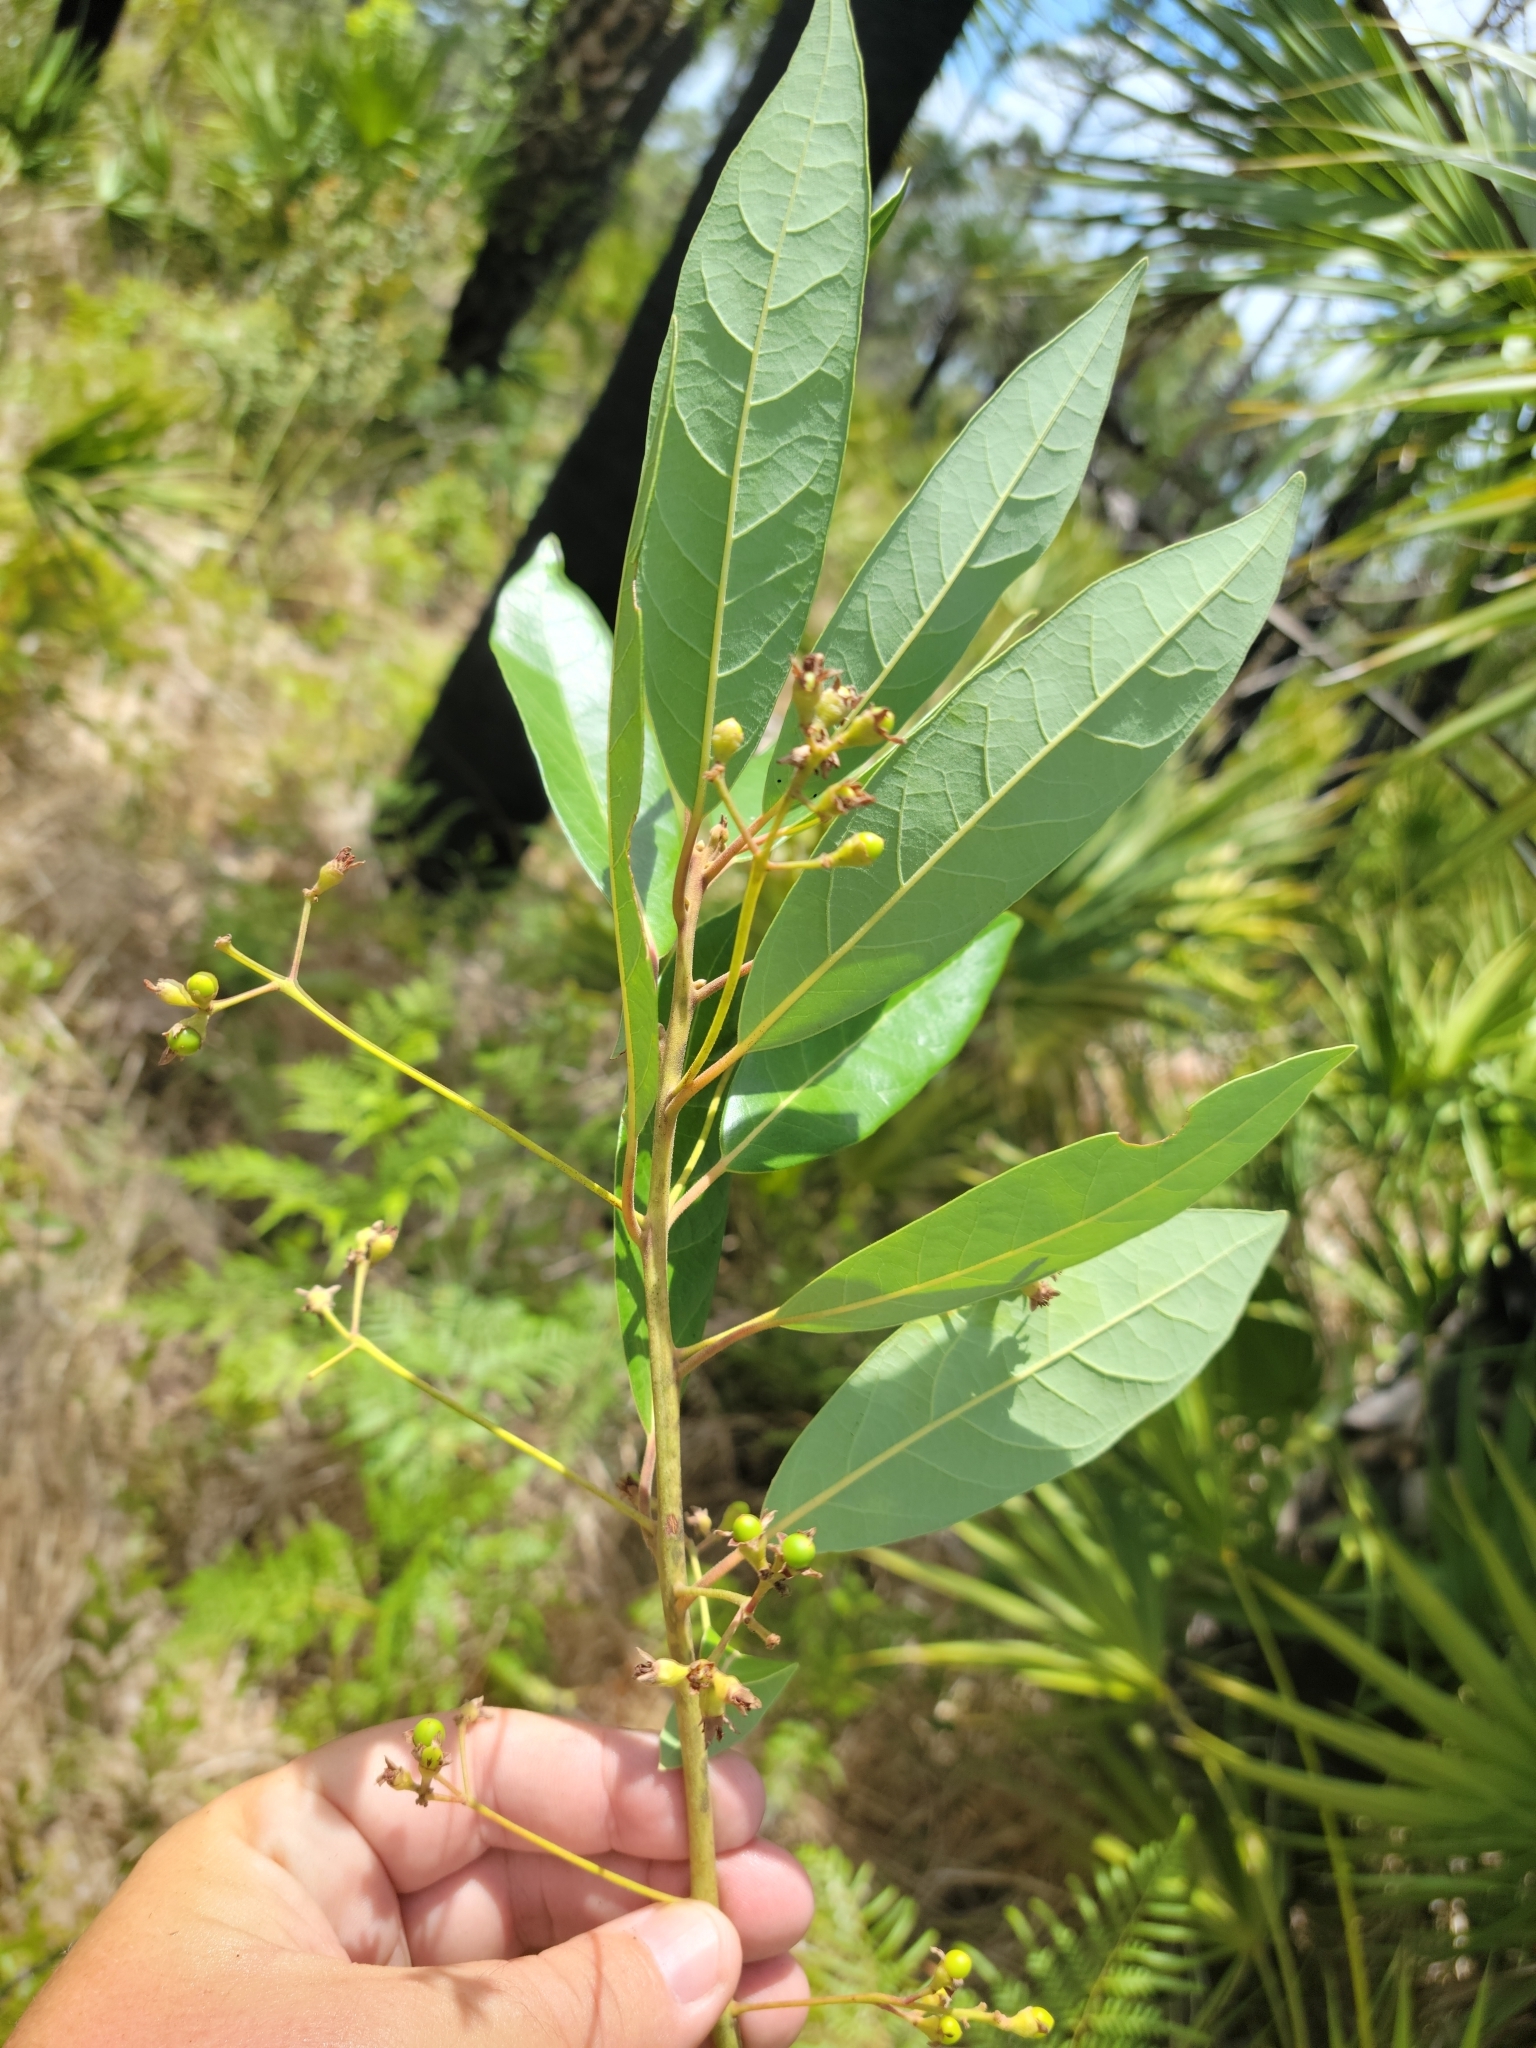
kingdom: Plantae
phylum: Tracheophyta
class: Magnoliopsida
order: Laurales
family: Lauraceae
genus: Persea
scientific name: Persea palustris
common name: Swampbay
